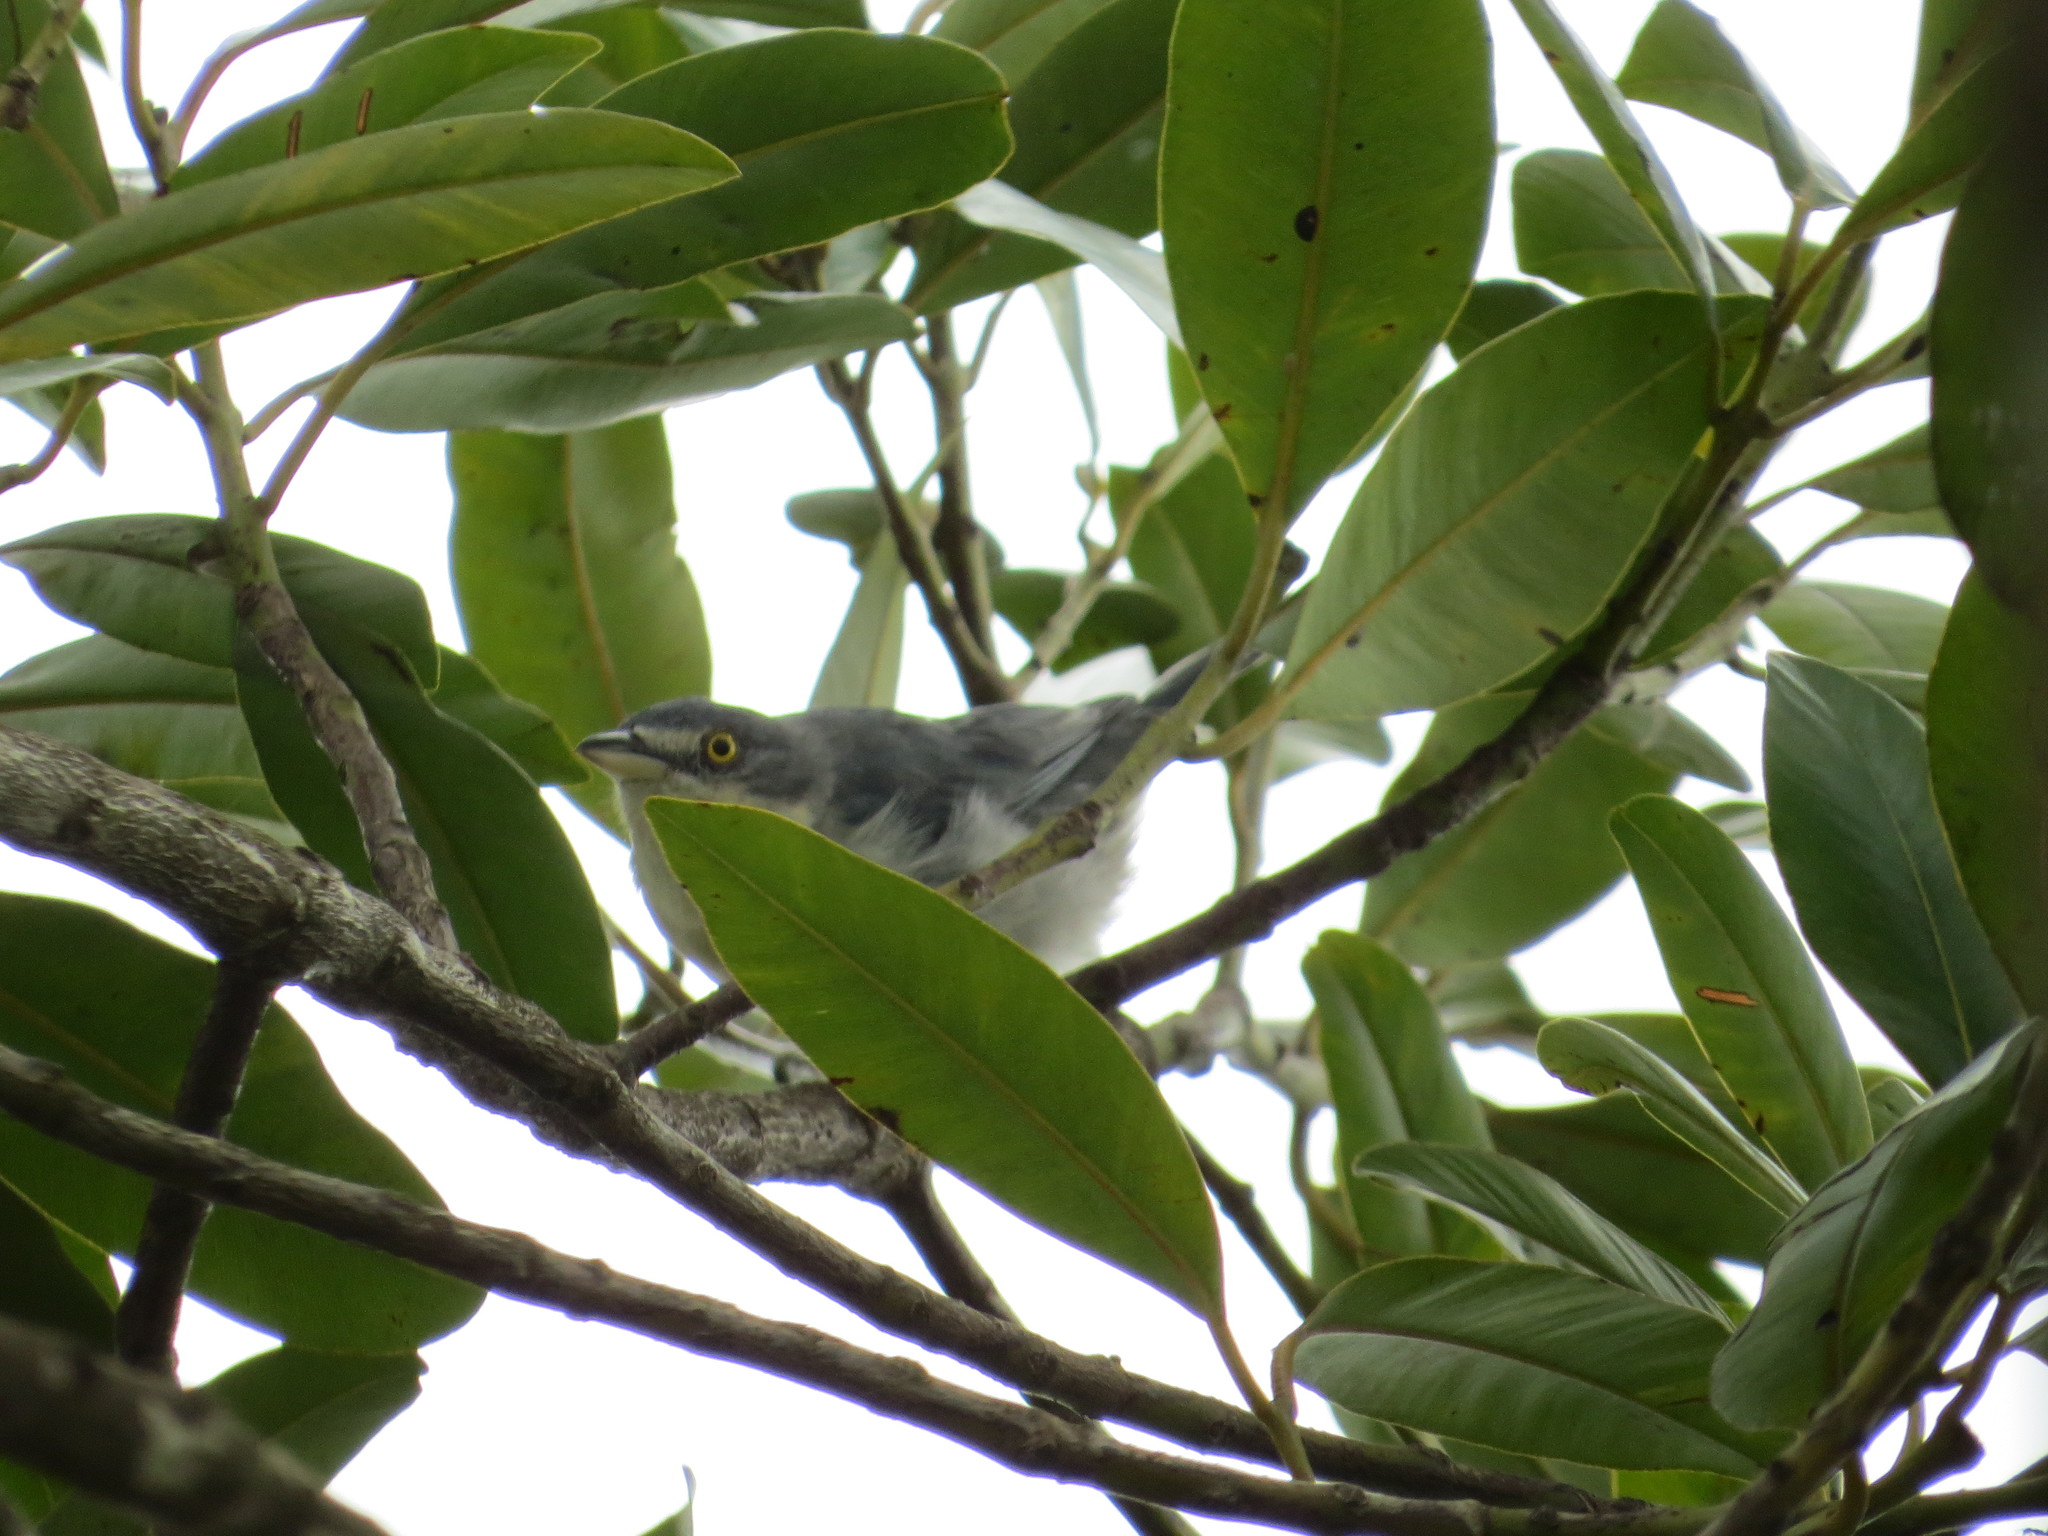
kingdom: Animalia
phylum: Chordata
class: Aves
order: Passeriformes
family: Thraupidae
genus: Nemosia
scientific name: Nemosia pileata
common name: Hooded tanager
